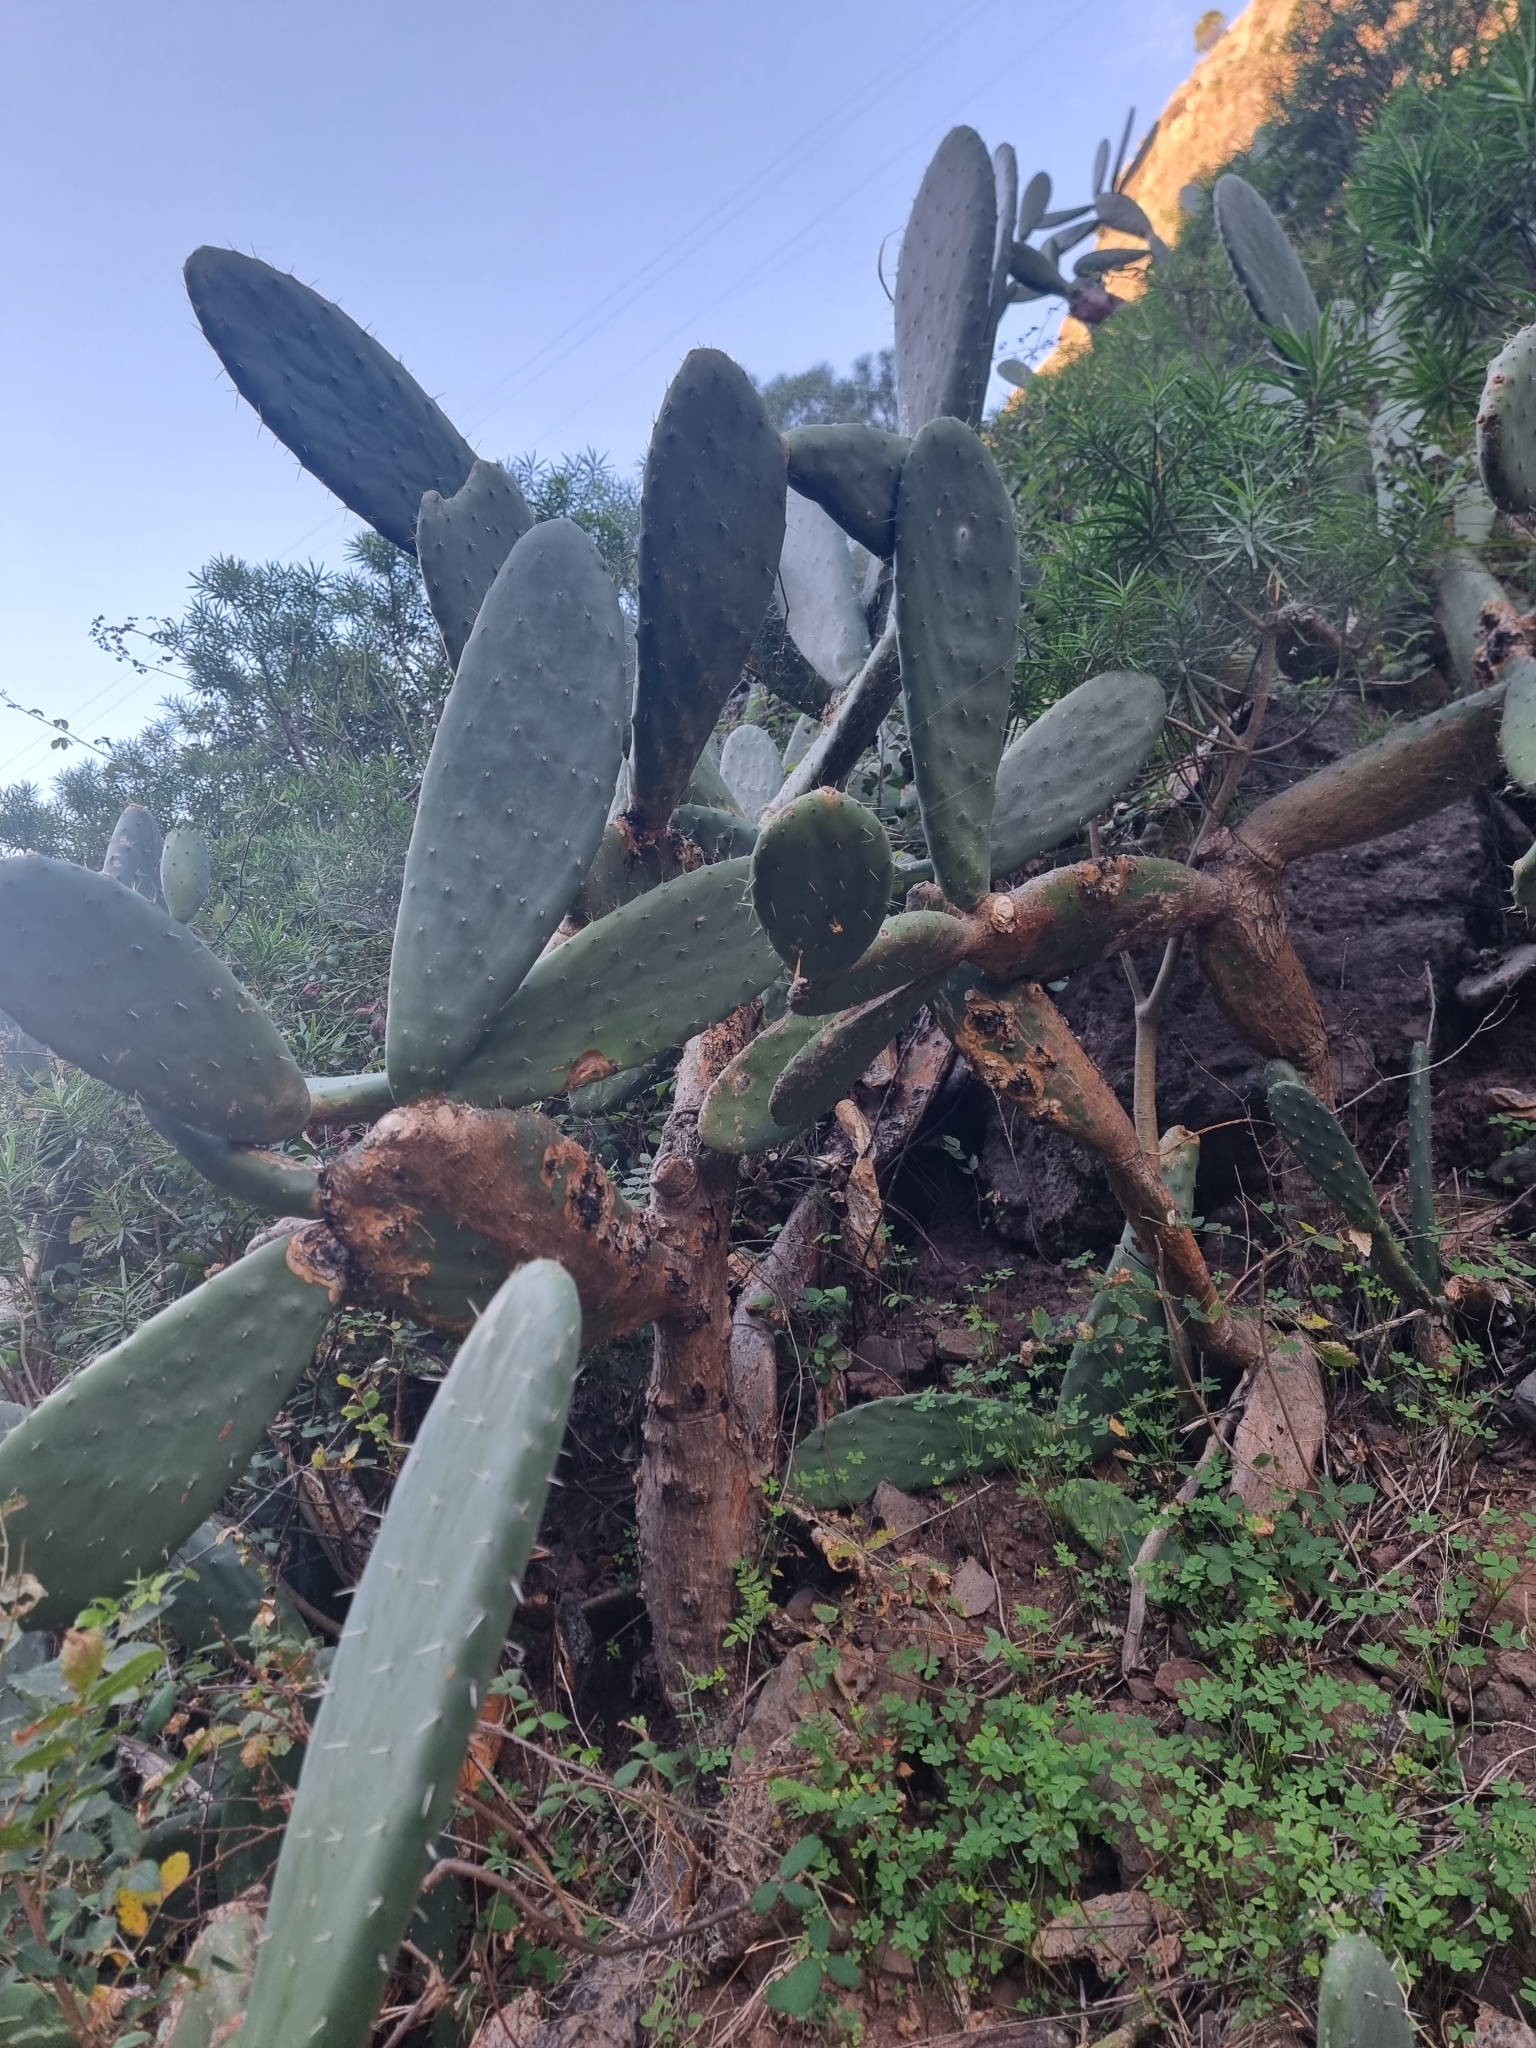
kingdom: Plantae
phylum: Tracheophyta
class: Magnoliopsida
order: Caryophyllales
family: Cactaceae
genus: Opuntia
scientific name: Opuntia ficus-indica
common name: Barbary fig
